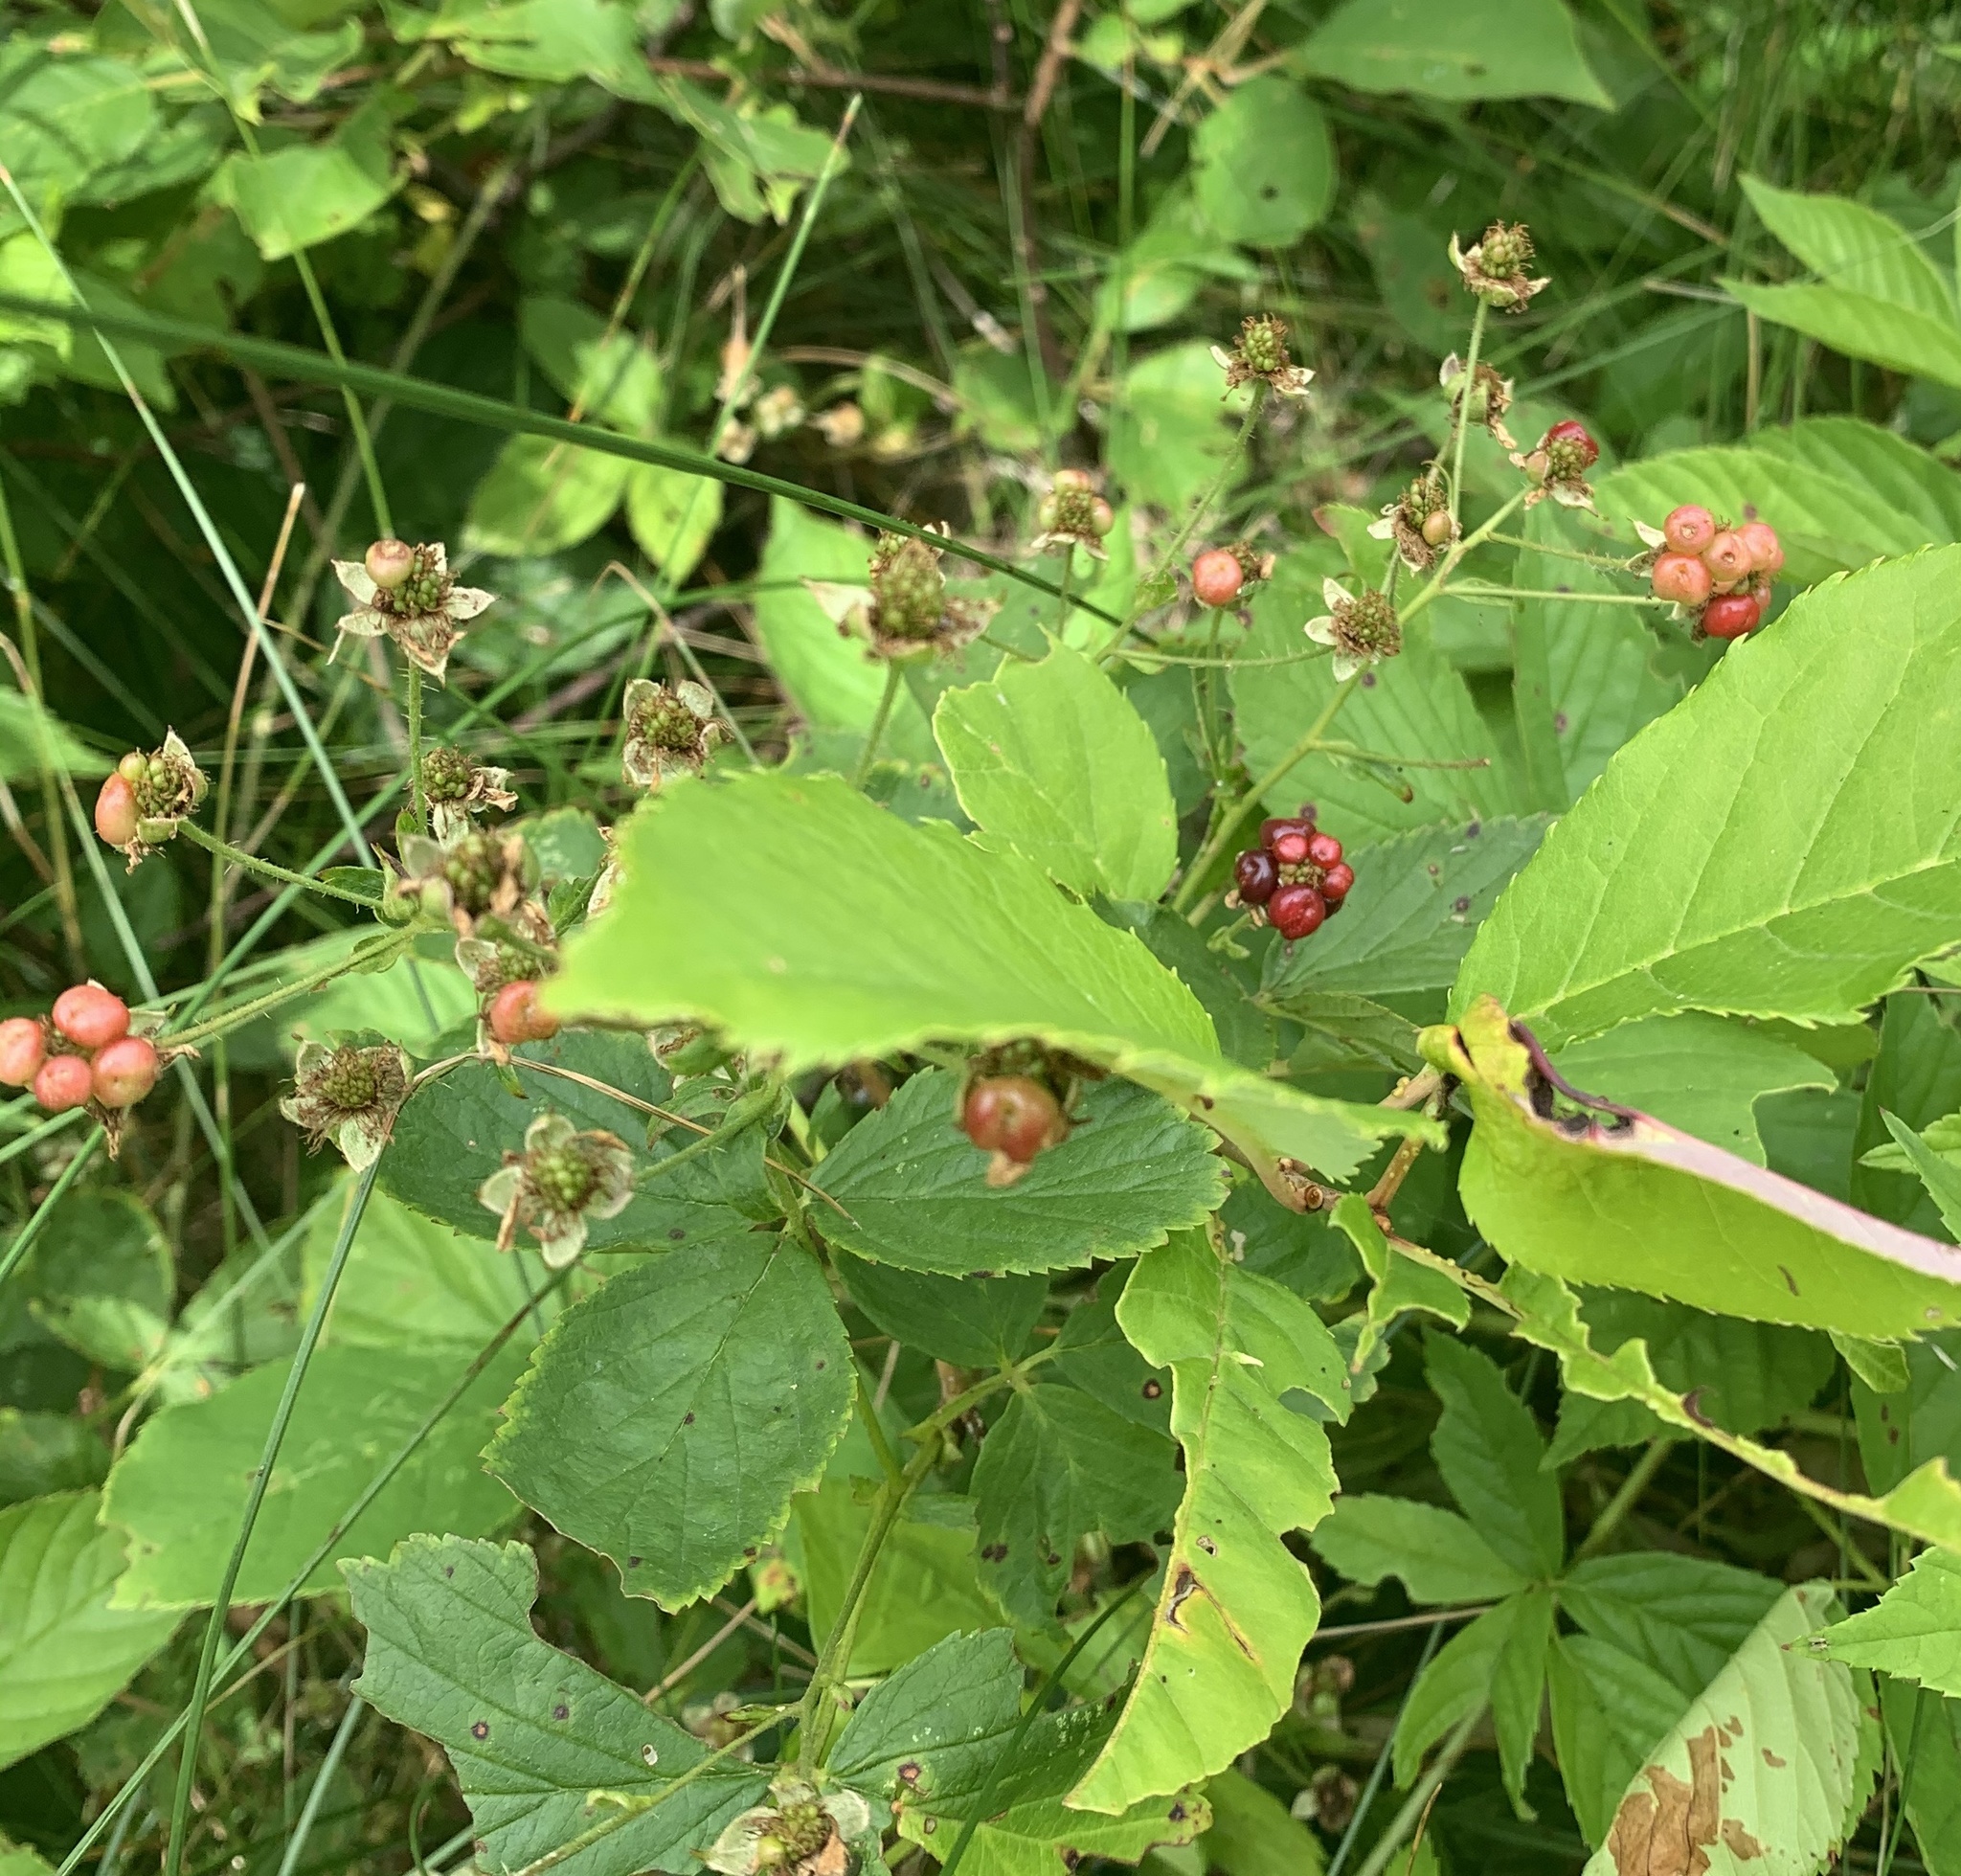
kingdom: Plantae
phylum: Tracheophyta
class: Magnoliopsida
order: Rosales
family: Rosaceae
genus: Rubus
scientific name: Rubus pensilvanicus
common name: Pennsylvania blackberry
